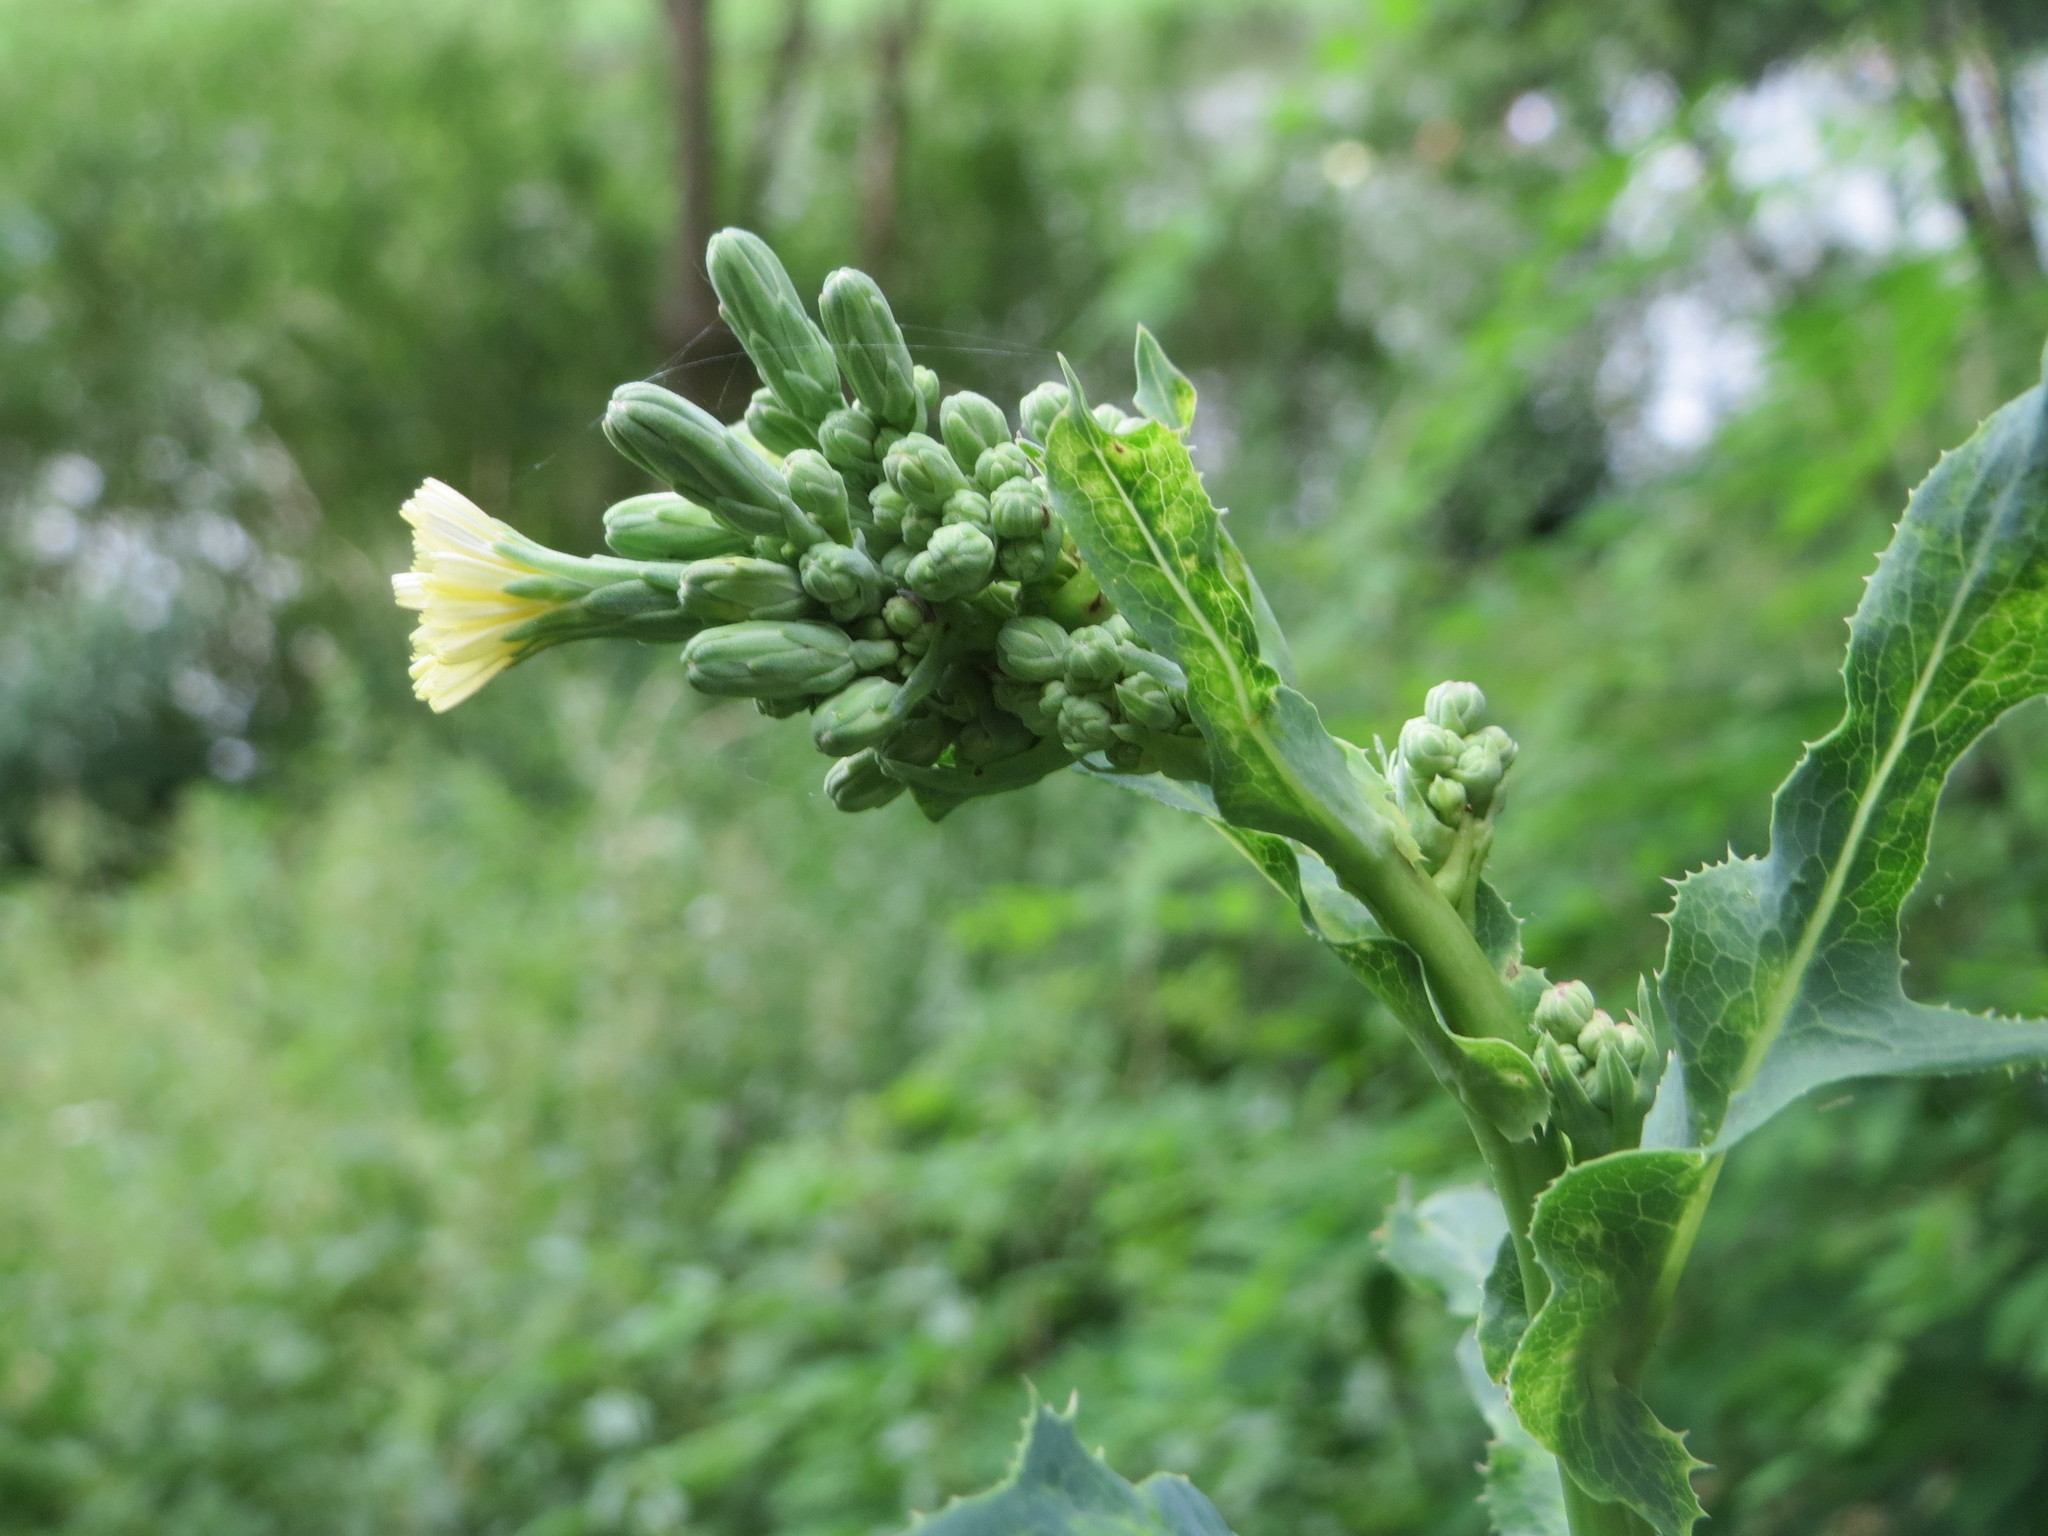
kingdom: Plantae
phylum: Tracheophyta
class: Magnoliopsida
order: Asterales
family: Asteraceae
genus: Lactuca
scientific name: Lactuca serriola
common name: Prickly lettuce
